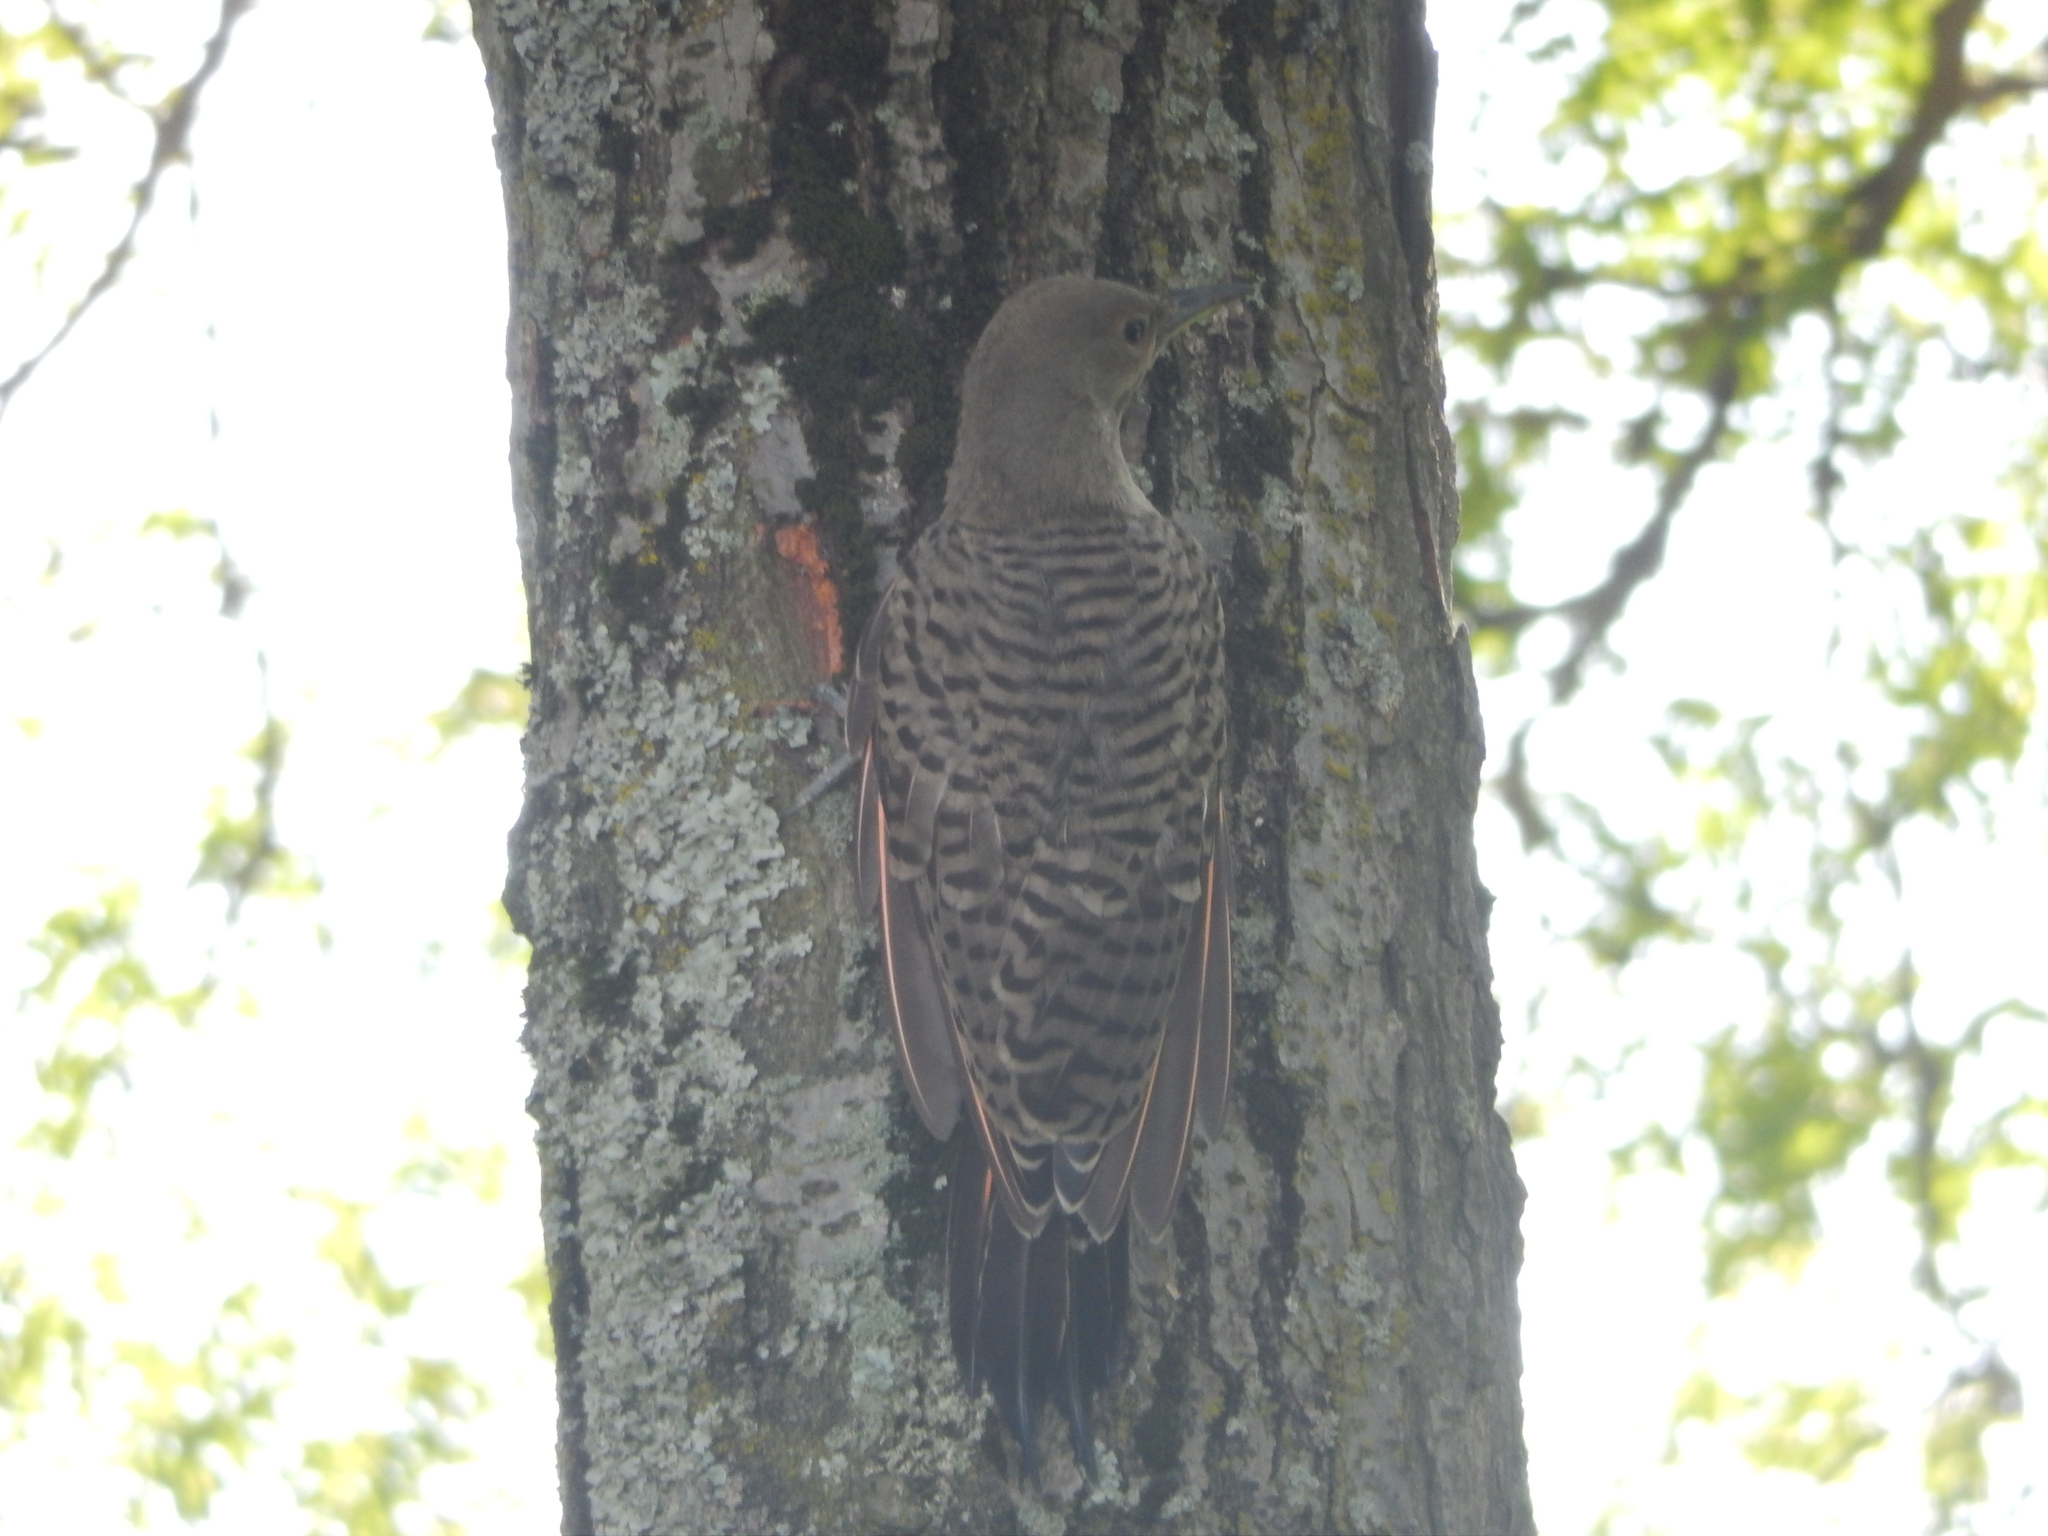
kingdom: Animalia
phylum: Chordata
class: Aves
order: Piciformes
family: Picidae
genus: Colaptes
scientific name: Colaptes auratus
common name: Northern flicker
